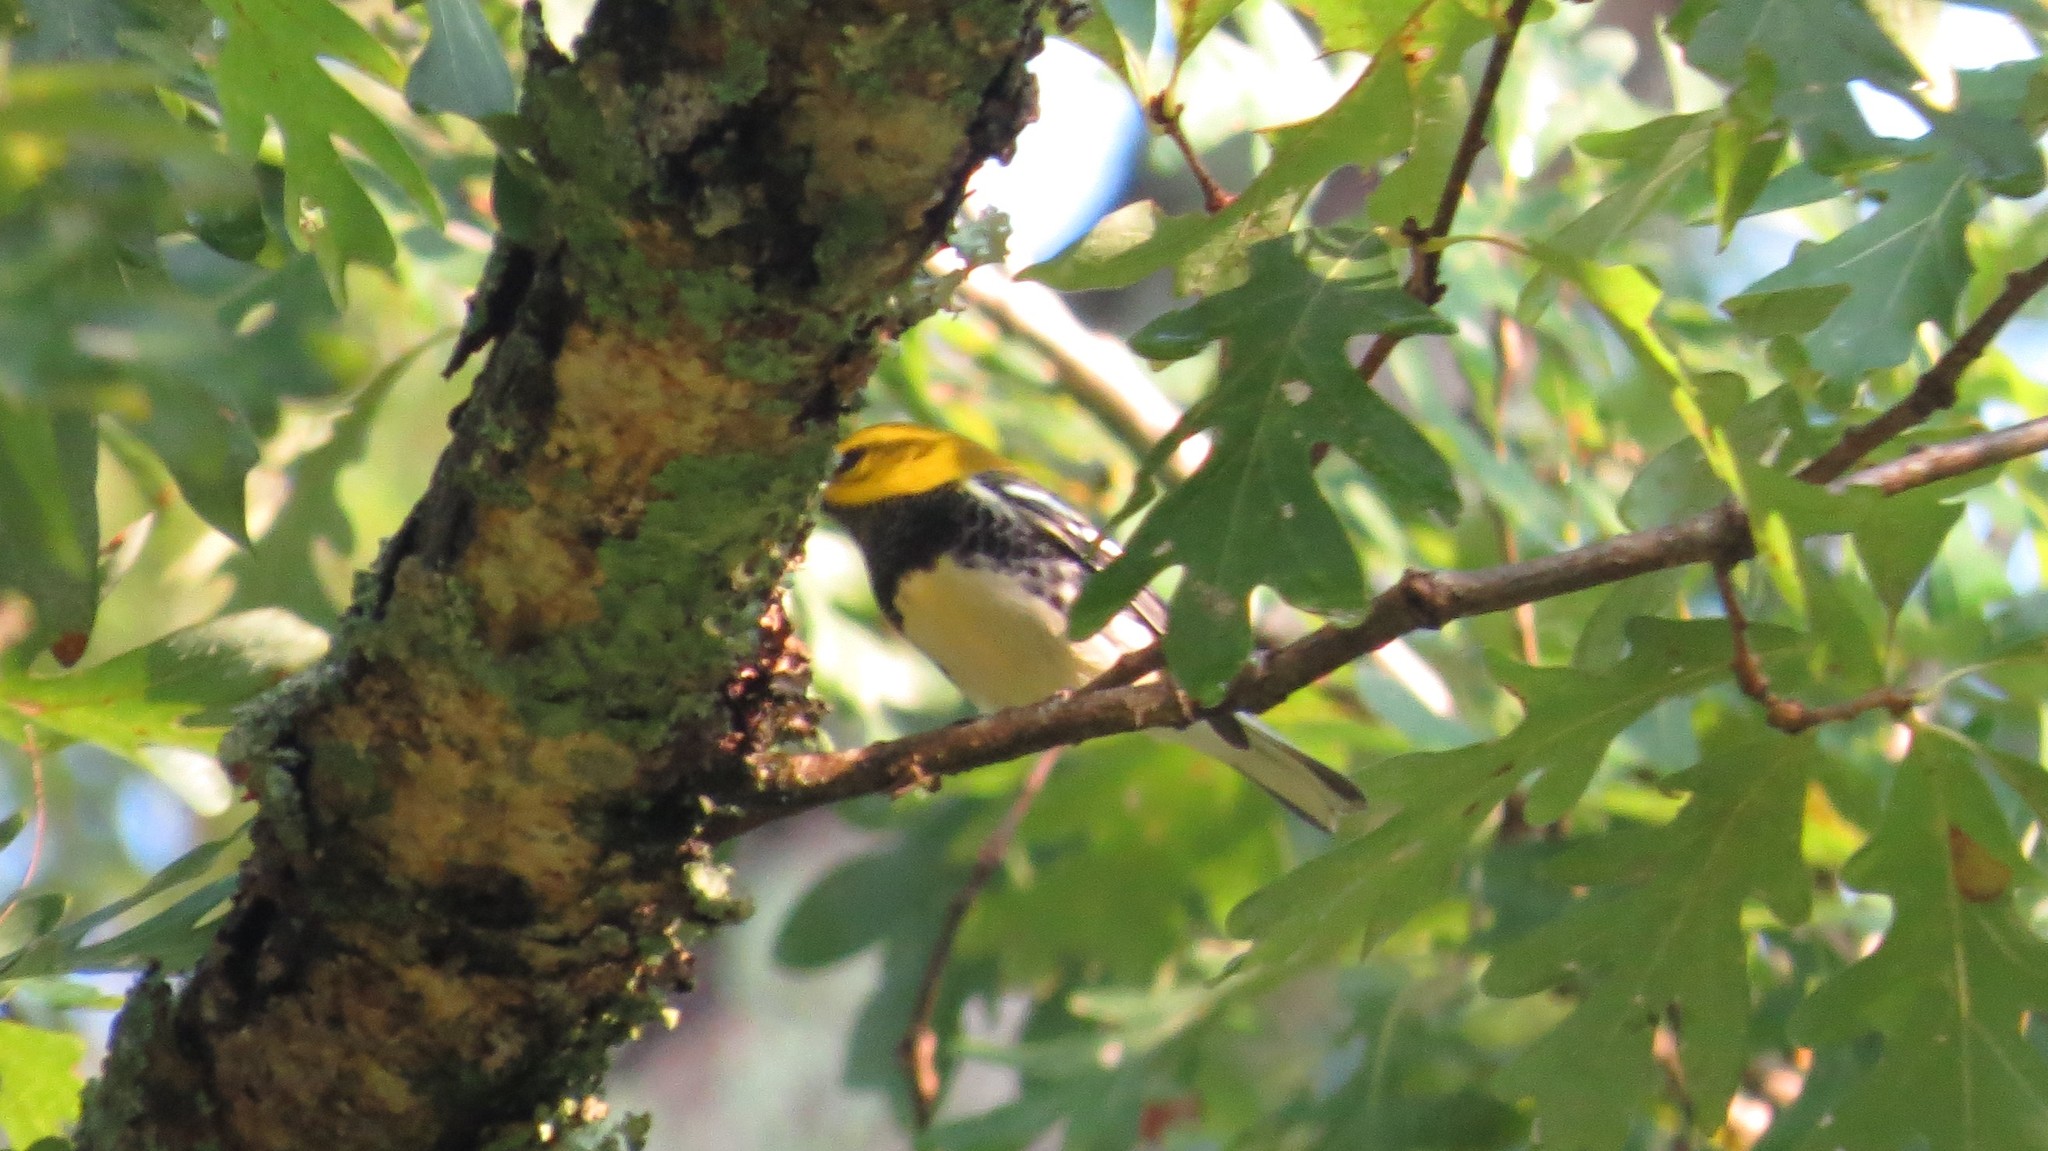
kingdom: Animalia
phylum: Chordata
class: Aves
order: Passeriformes
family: Parulidae
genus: Setophaga
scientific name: Setophaga virens
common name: Black-throated green warbler
